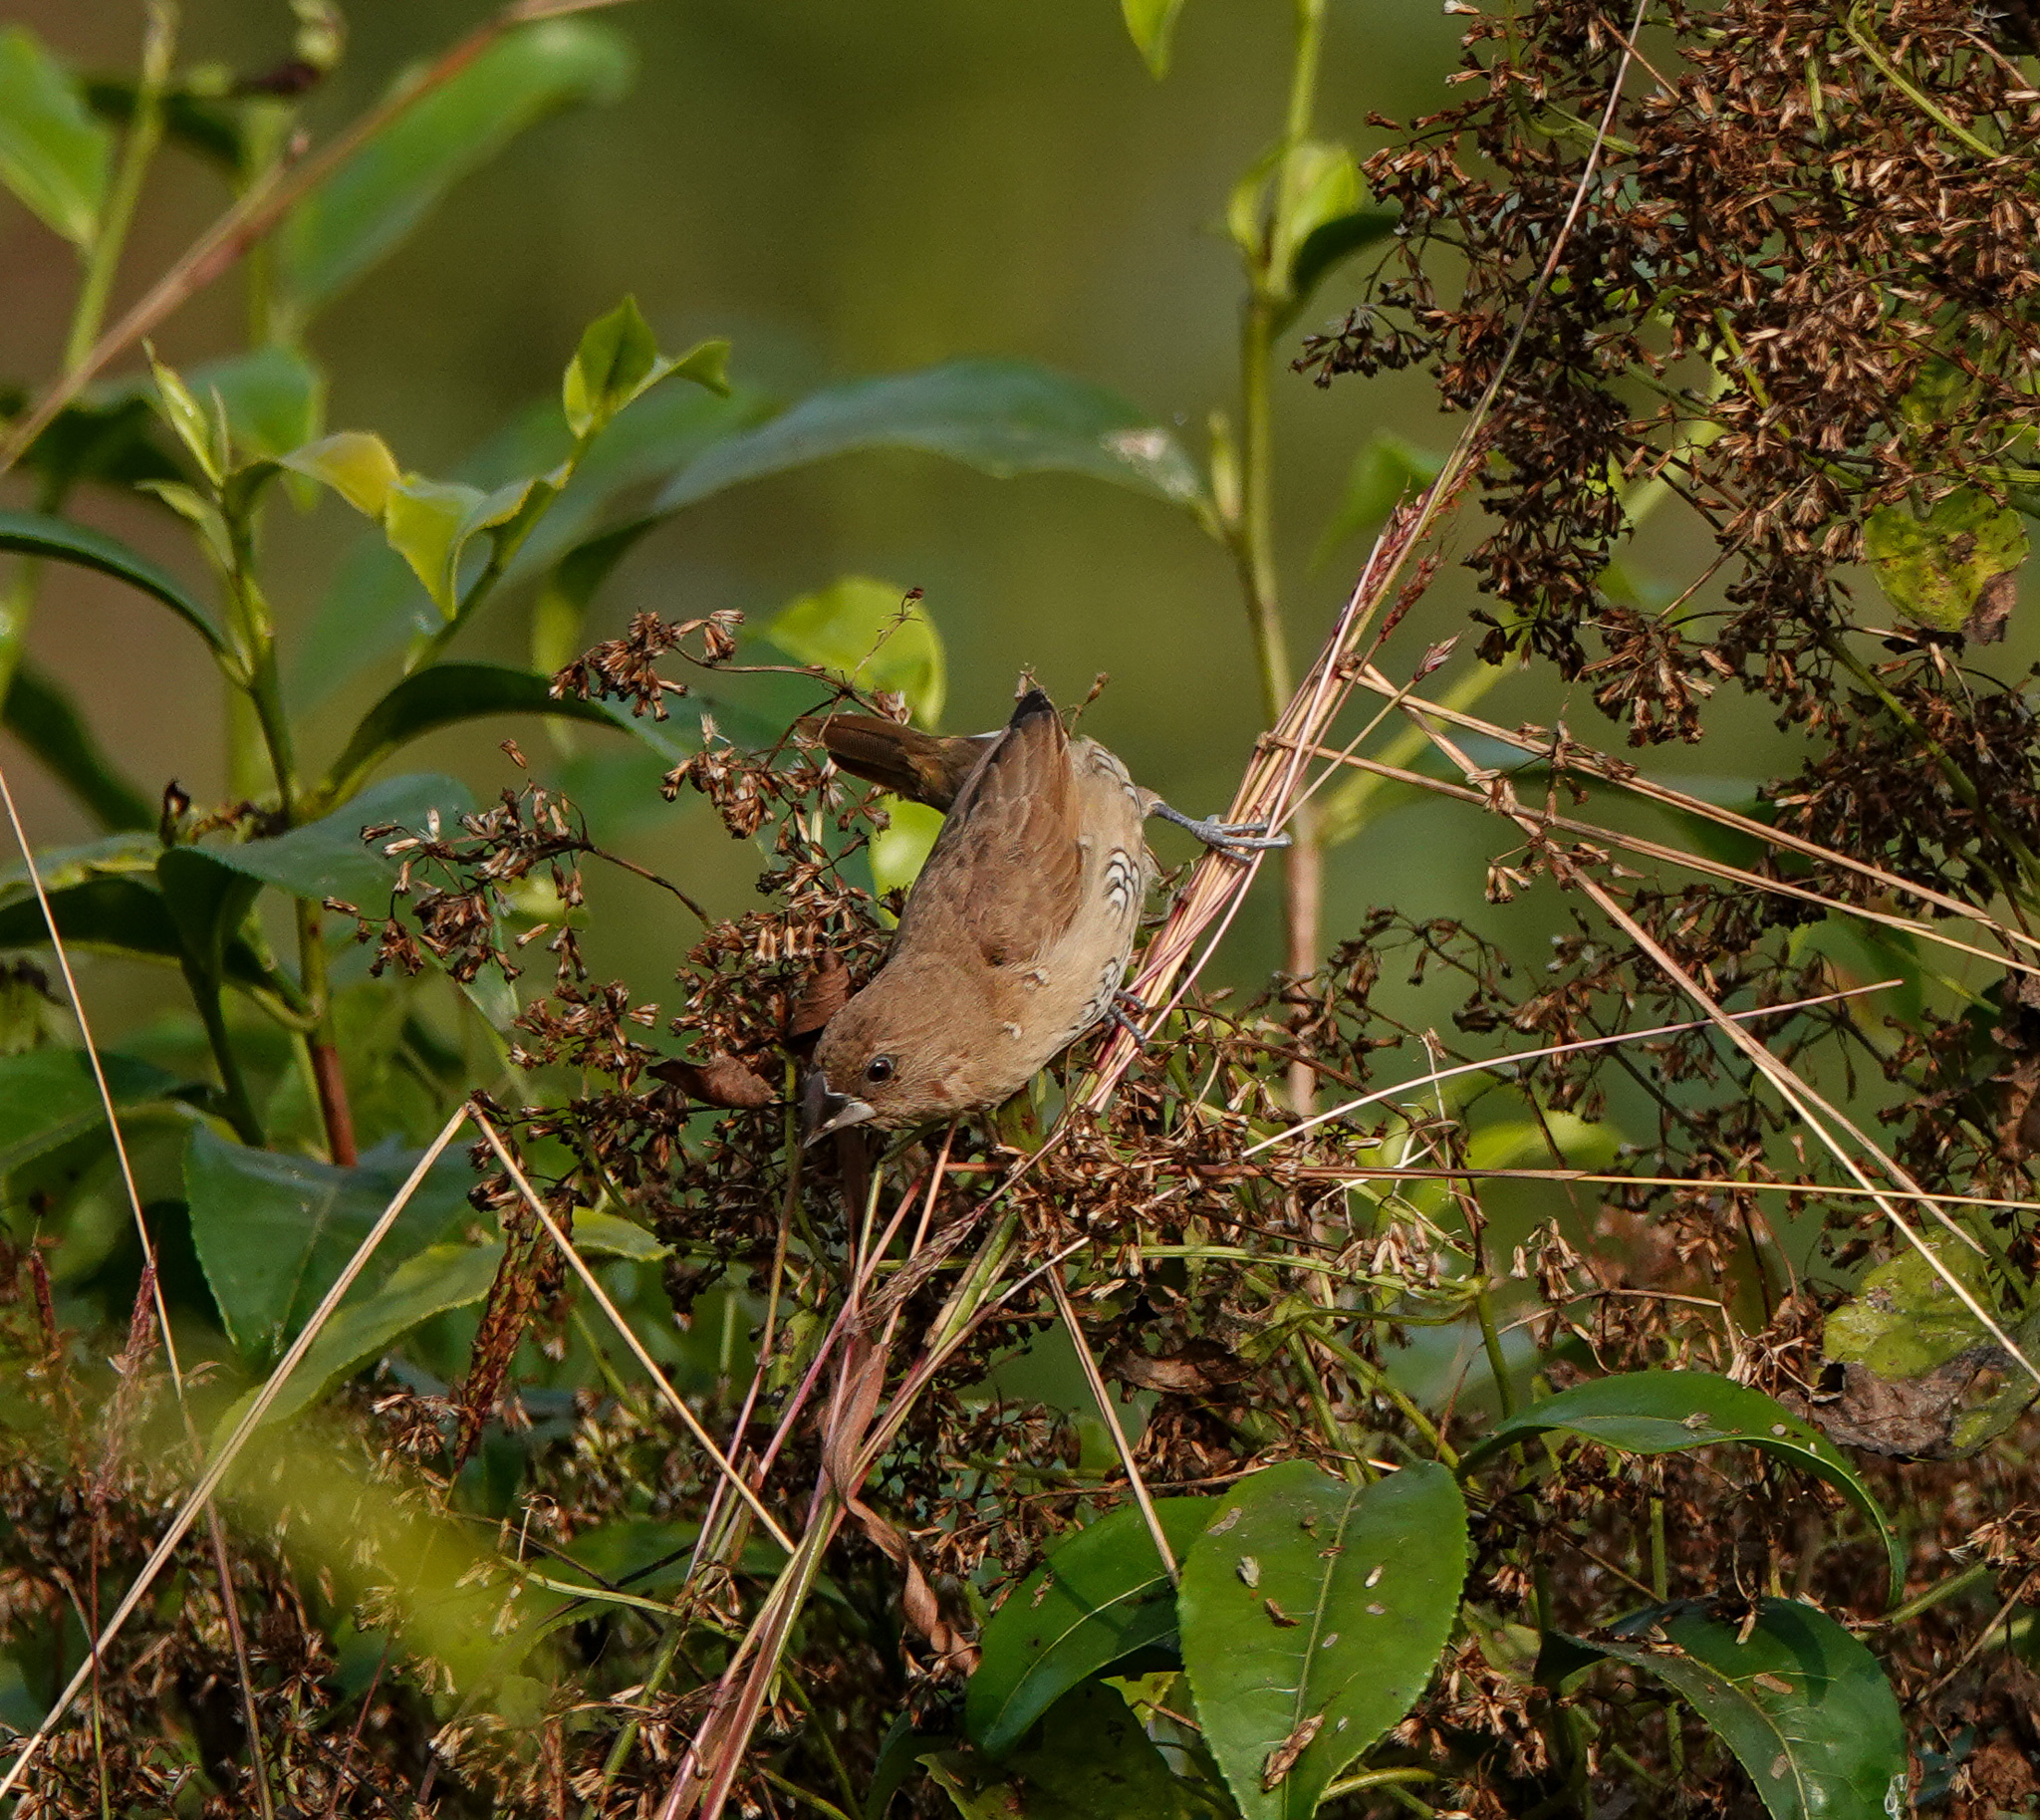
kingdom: Animalia
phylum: Chordata
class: Aves
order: Passeriformes
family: Estrildidae
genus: Lonchura
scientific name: Lonchura punctulata
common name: Scaly-breasted munia
